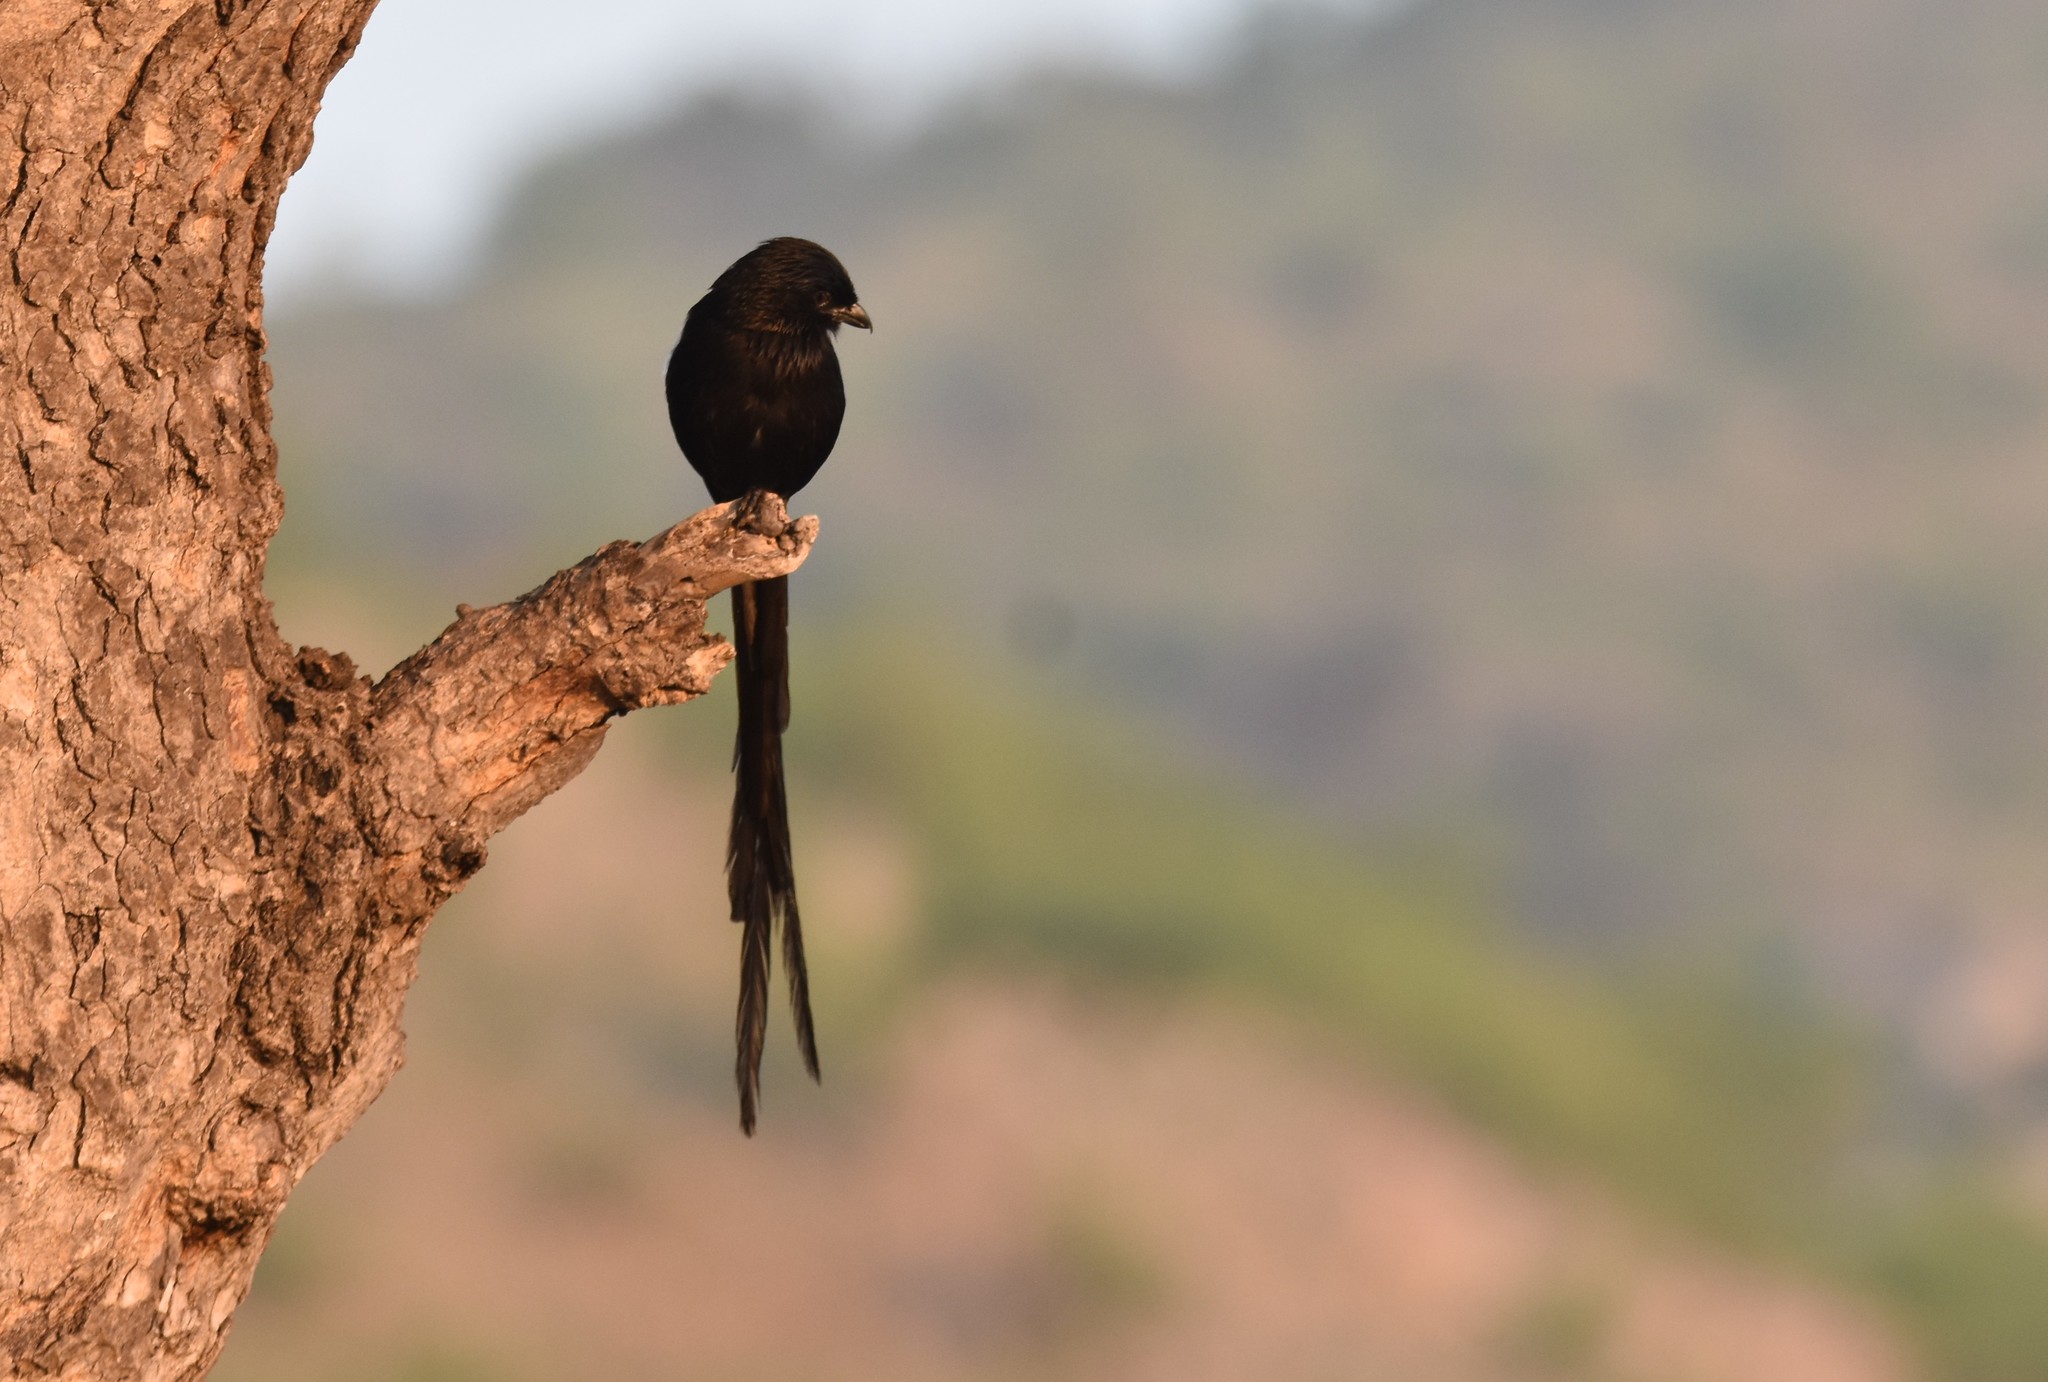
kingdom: Animalia
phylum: Chordata
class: Aves
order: Passeriformes
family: Laniidae
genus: Urolestes
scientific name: Urolestes melanoleucus
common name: Magpie shrike
